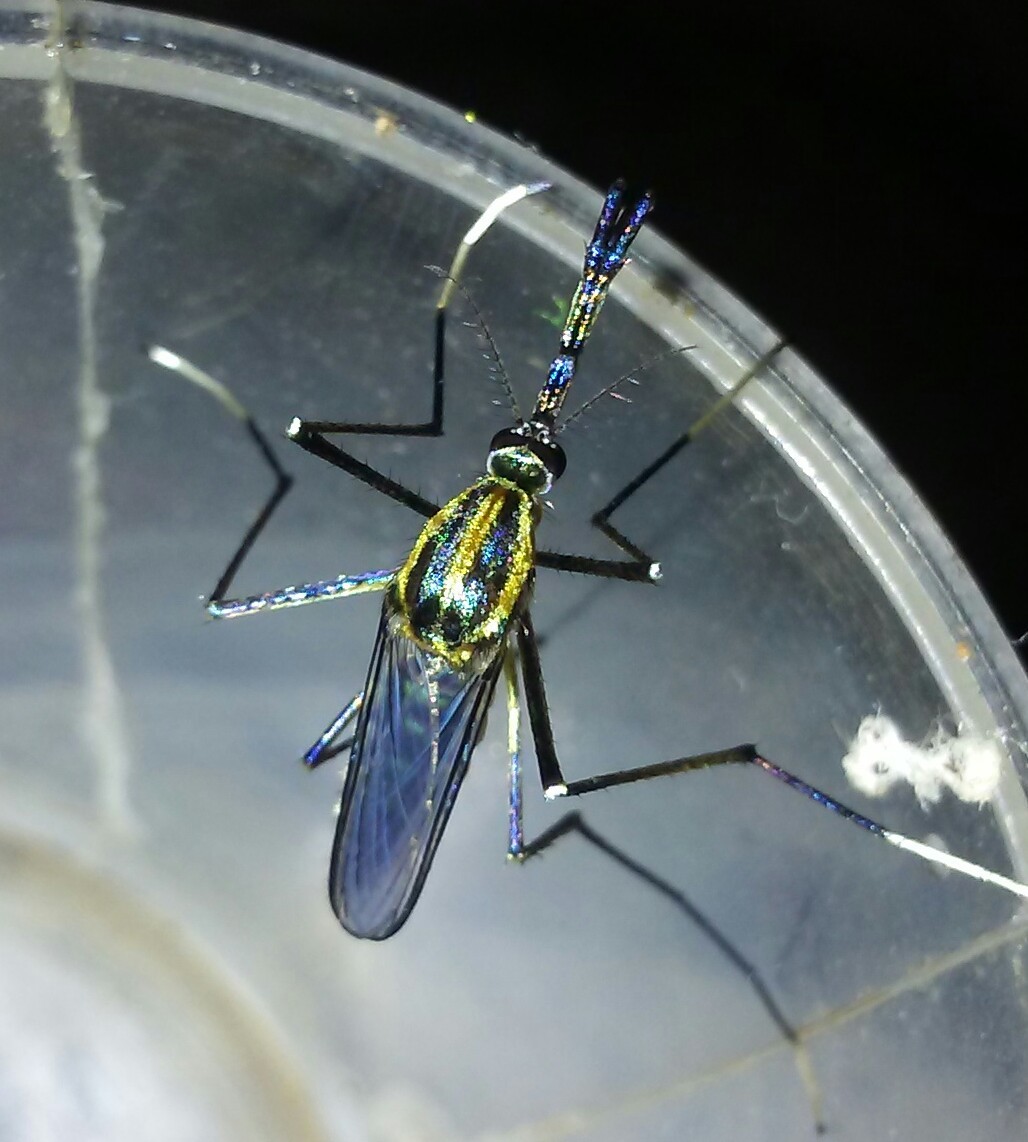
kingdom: Animalia
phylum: Arthropoda
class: Insecta
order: Diptera
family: Culicidae
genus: Toxorhynchites
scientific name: Toxorhynchites rutilus
